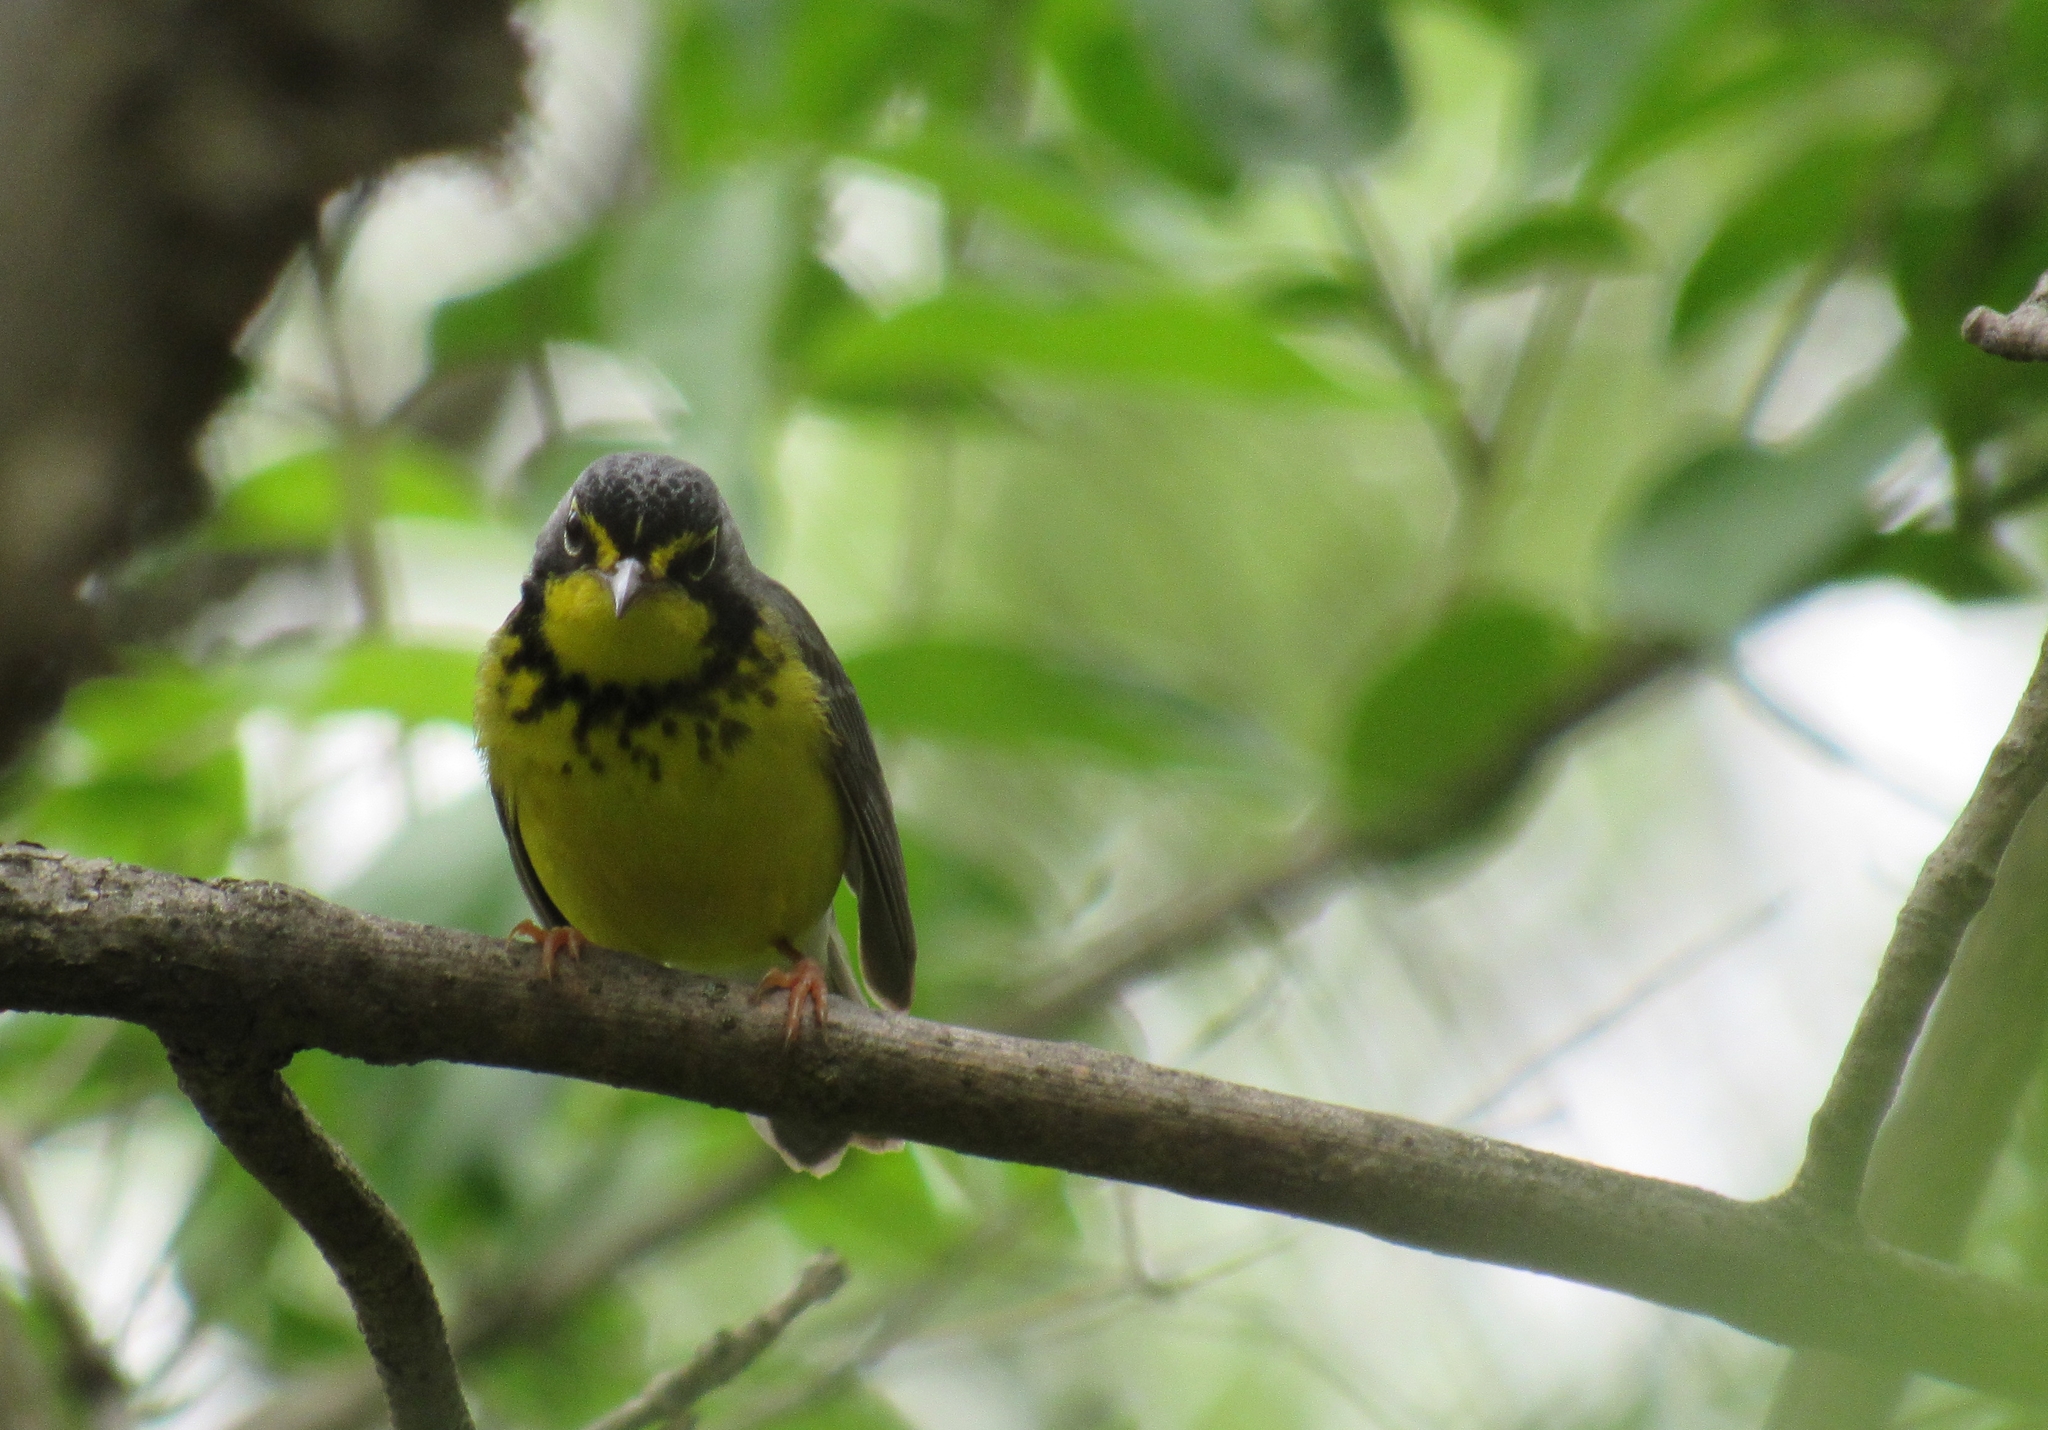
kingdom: Animalia
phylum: Chordata
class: Aves
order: Passeriformes
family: Parulidae
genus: Cardellina
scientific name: Cardellina canadensis
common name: Canada warbler
